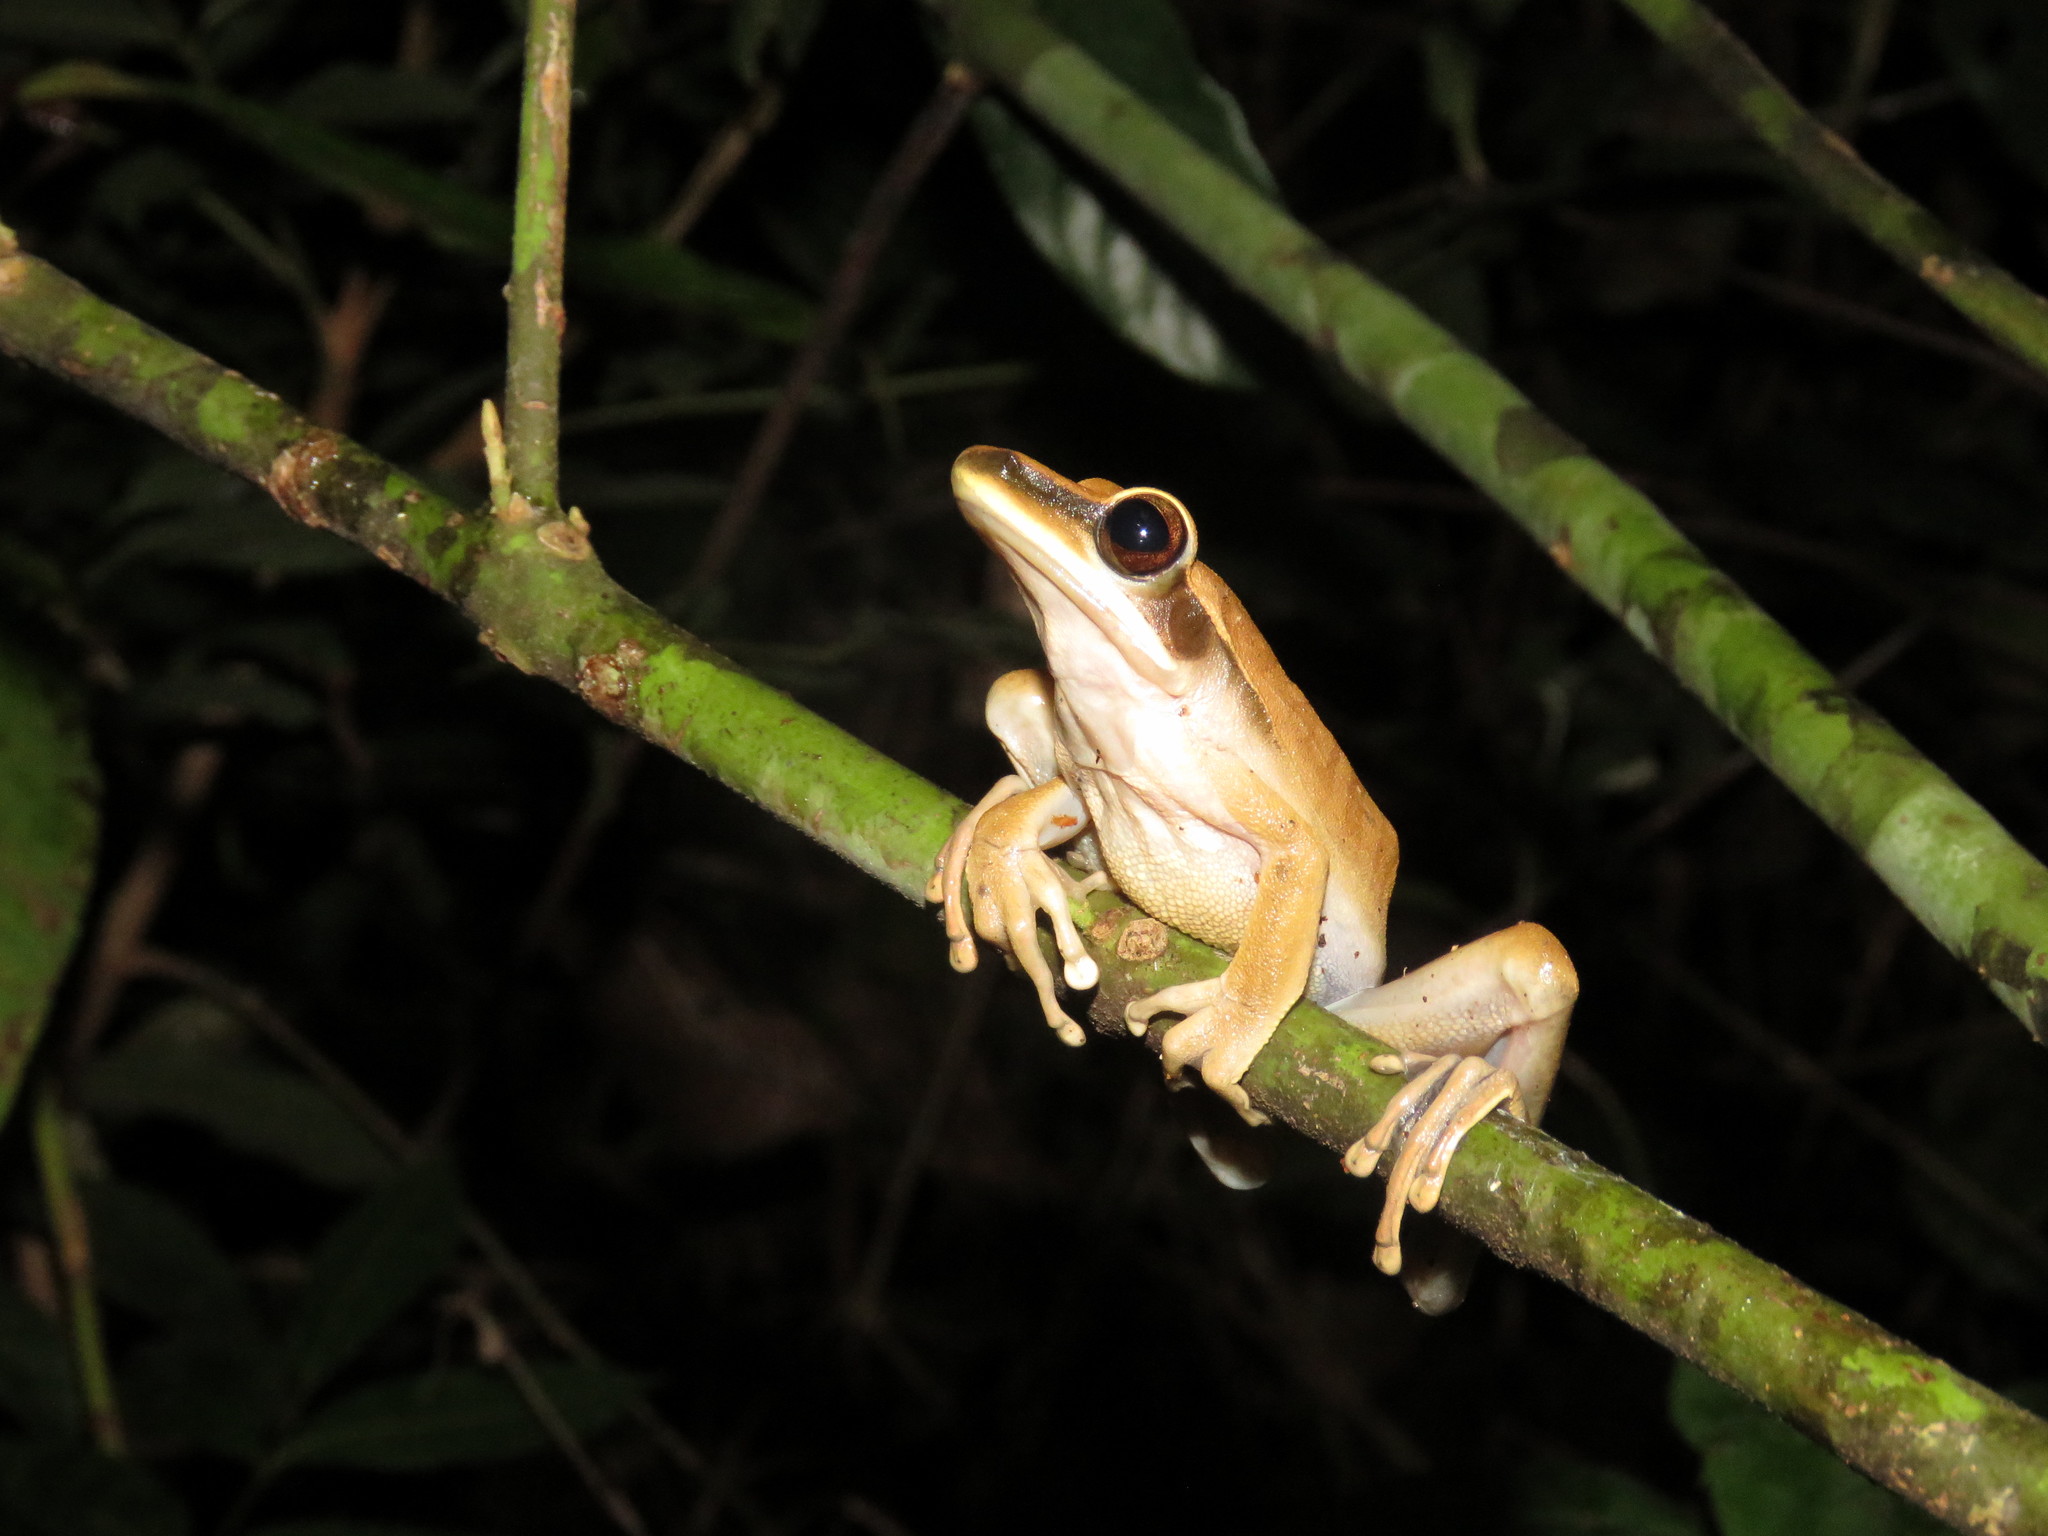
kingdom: Animalia
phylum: Chordata
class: Amphibia
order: Anura
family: Hylidae
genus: Boana
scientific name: Boana lanciformis
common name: Rana lanceolada commún
